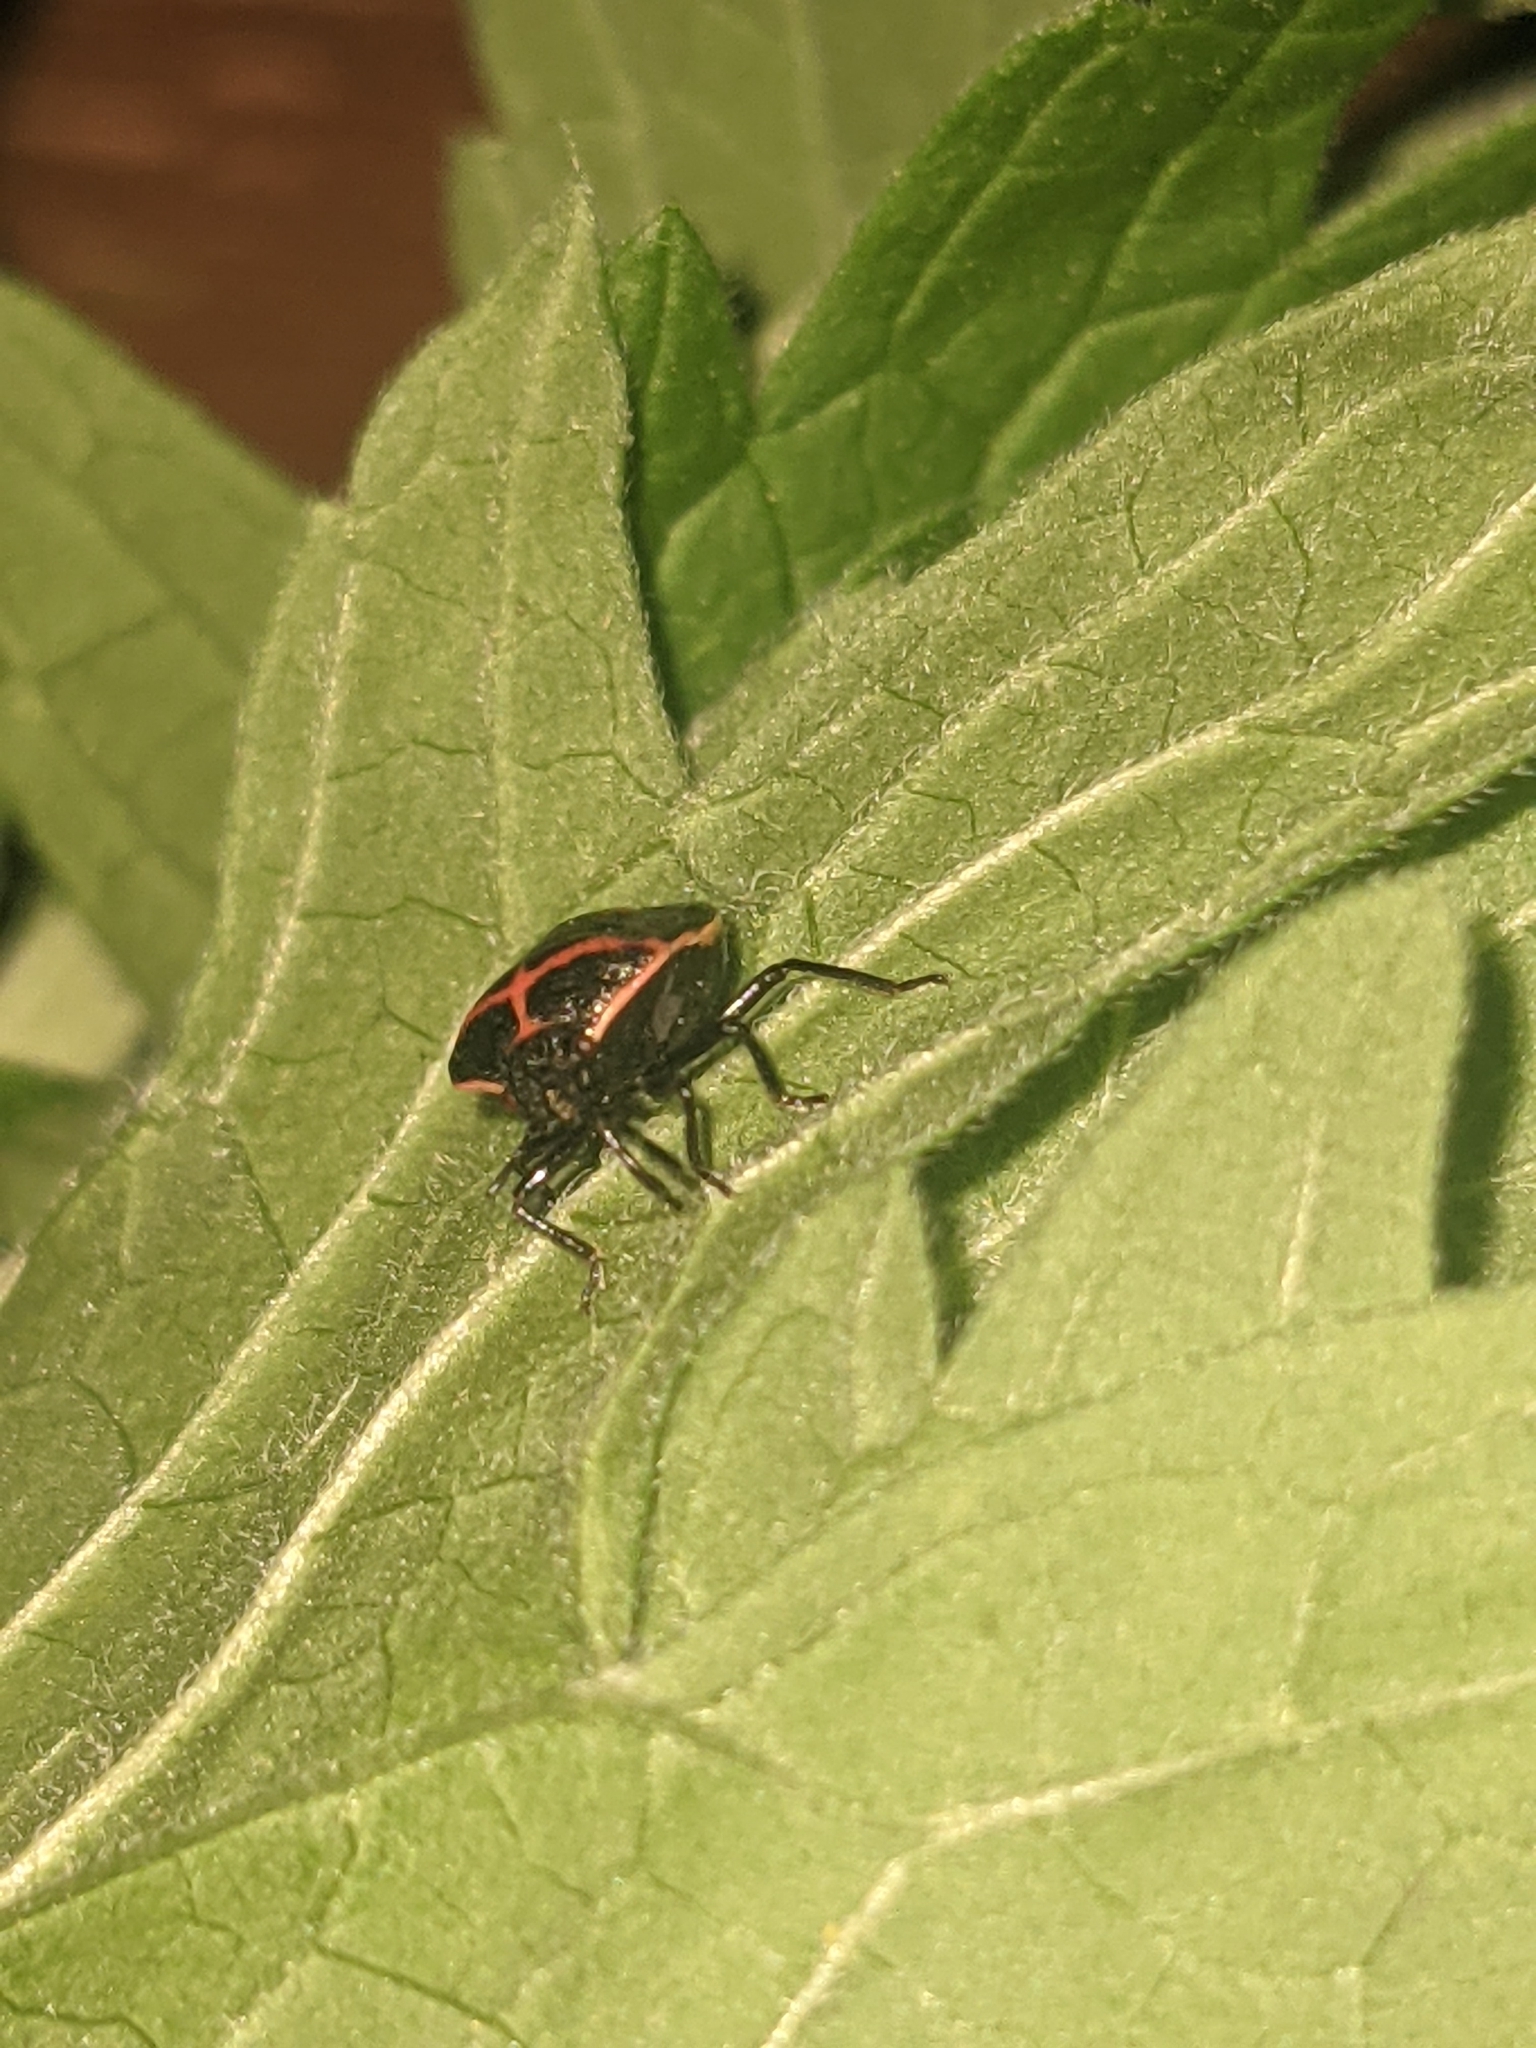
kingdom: Animalia
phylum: Arthropoda
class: Insecta
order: Hemiptera
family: Pentatomidae
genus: Cosmopepla
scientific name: Cosmopepla lintneriana
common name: Twice-stabbed stink bug
